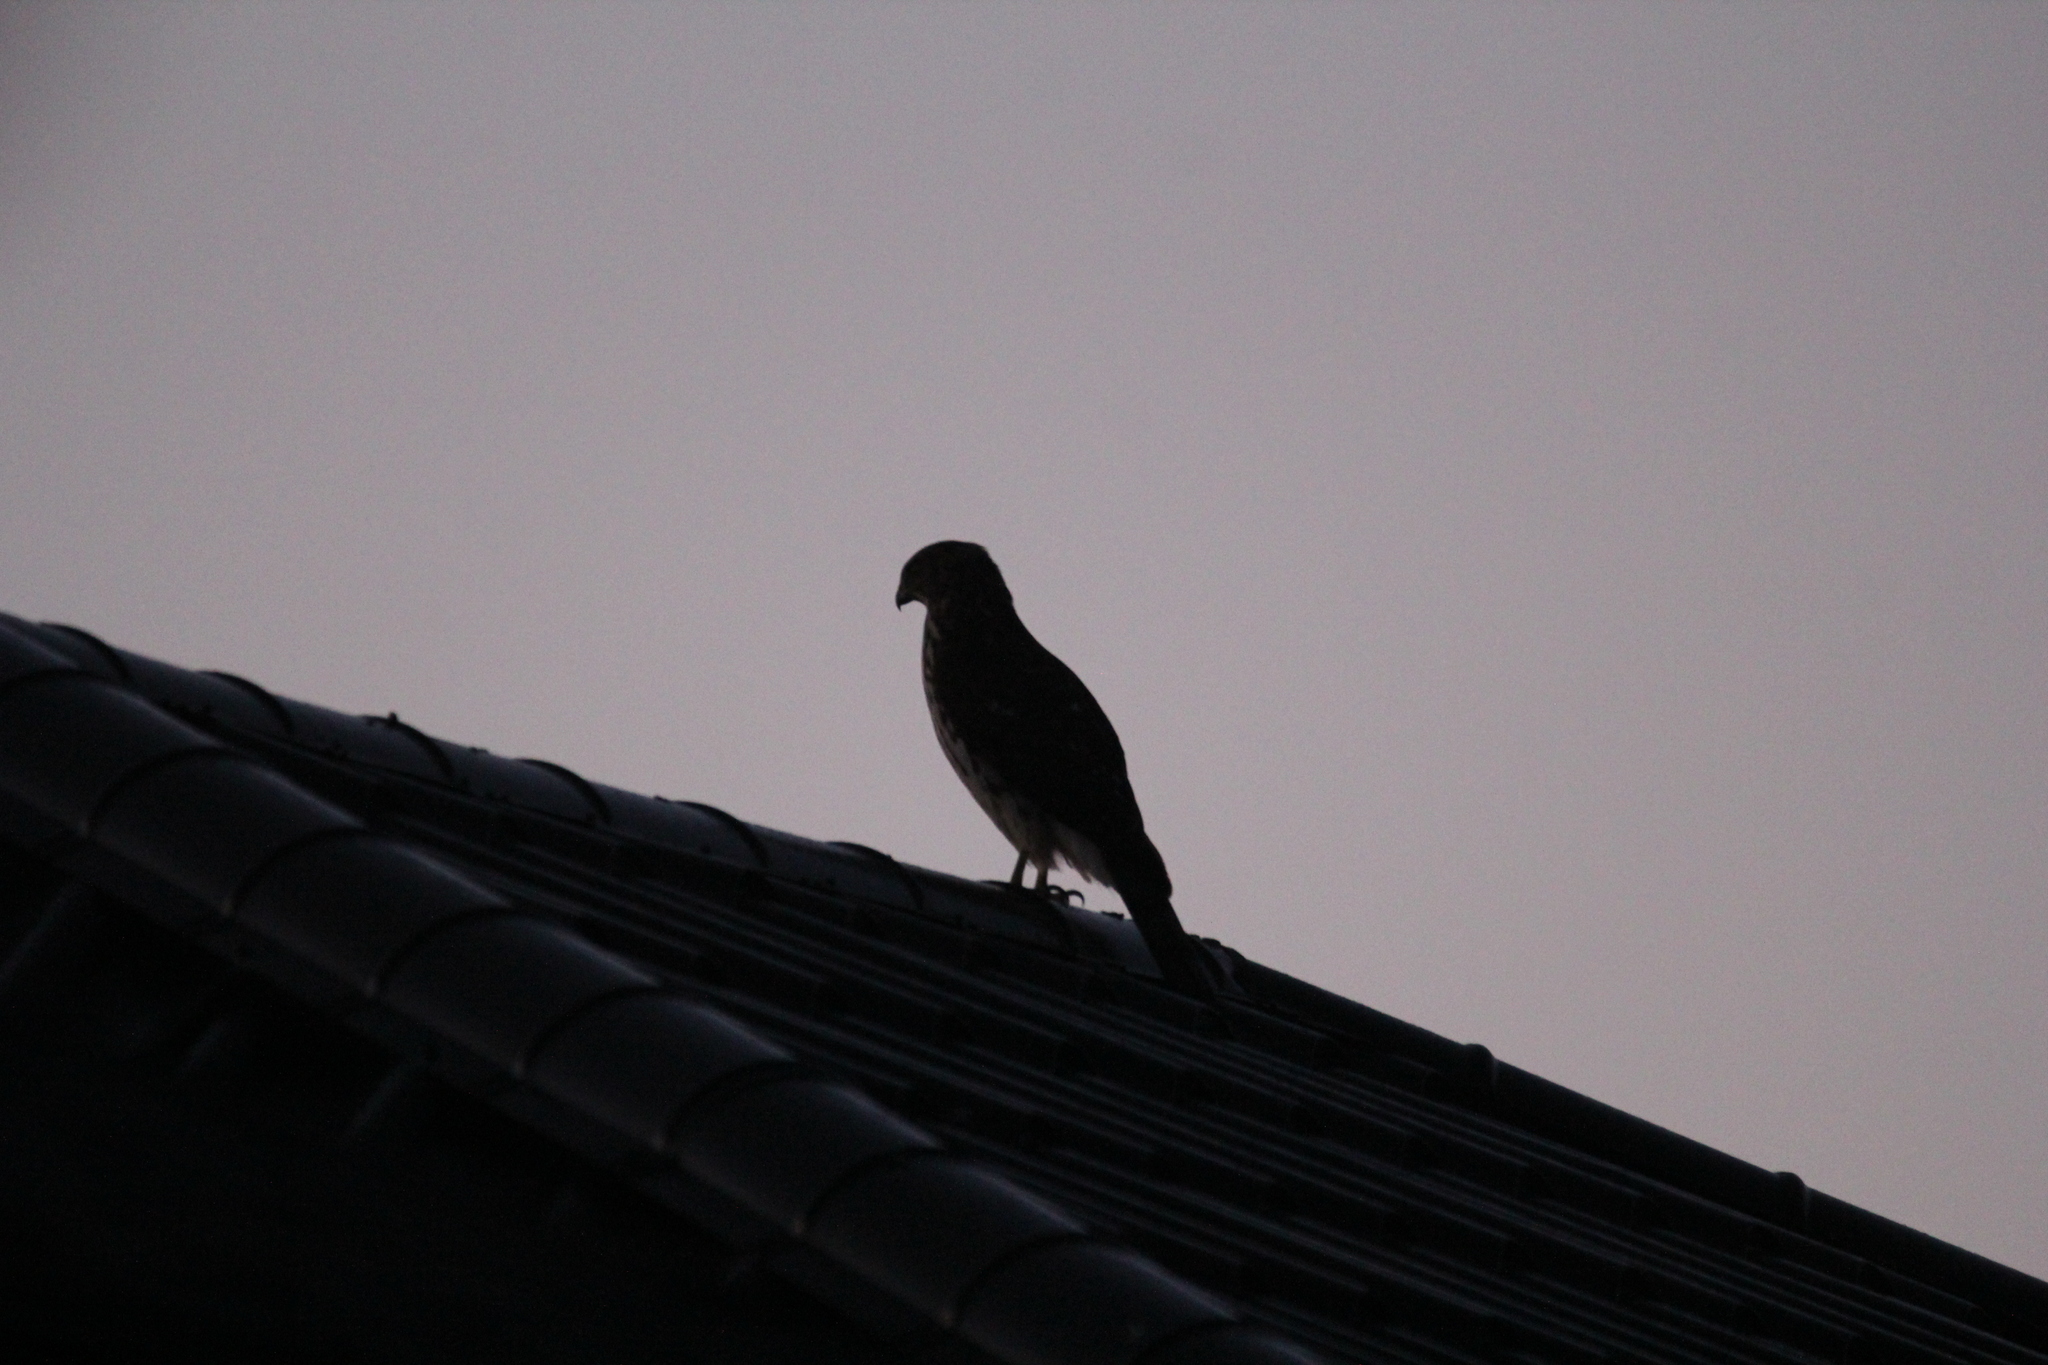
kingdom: Animalia
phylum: Chordata
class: Aves
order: Accipitriformes
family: Accipitridae
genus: Accipiter
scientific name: Accipiter cooperii
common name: Cooper's hawk
